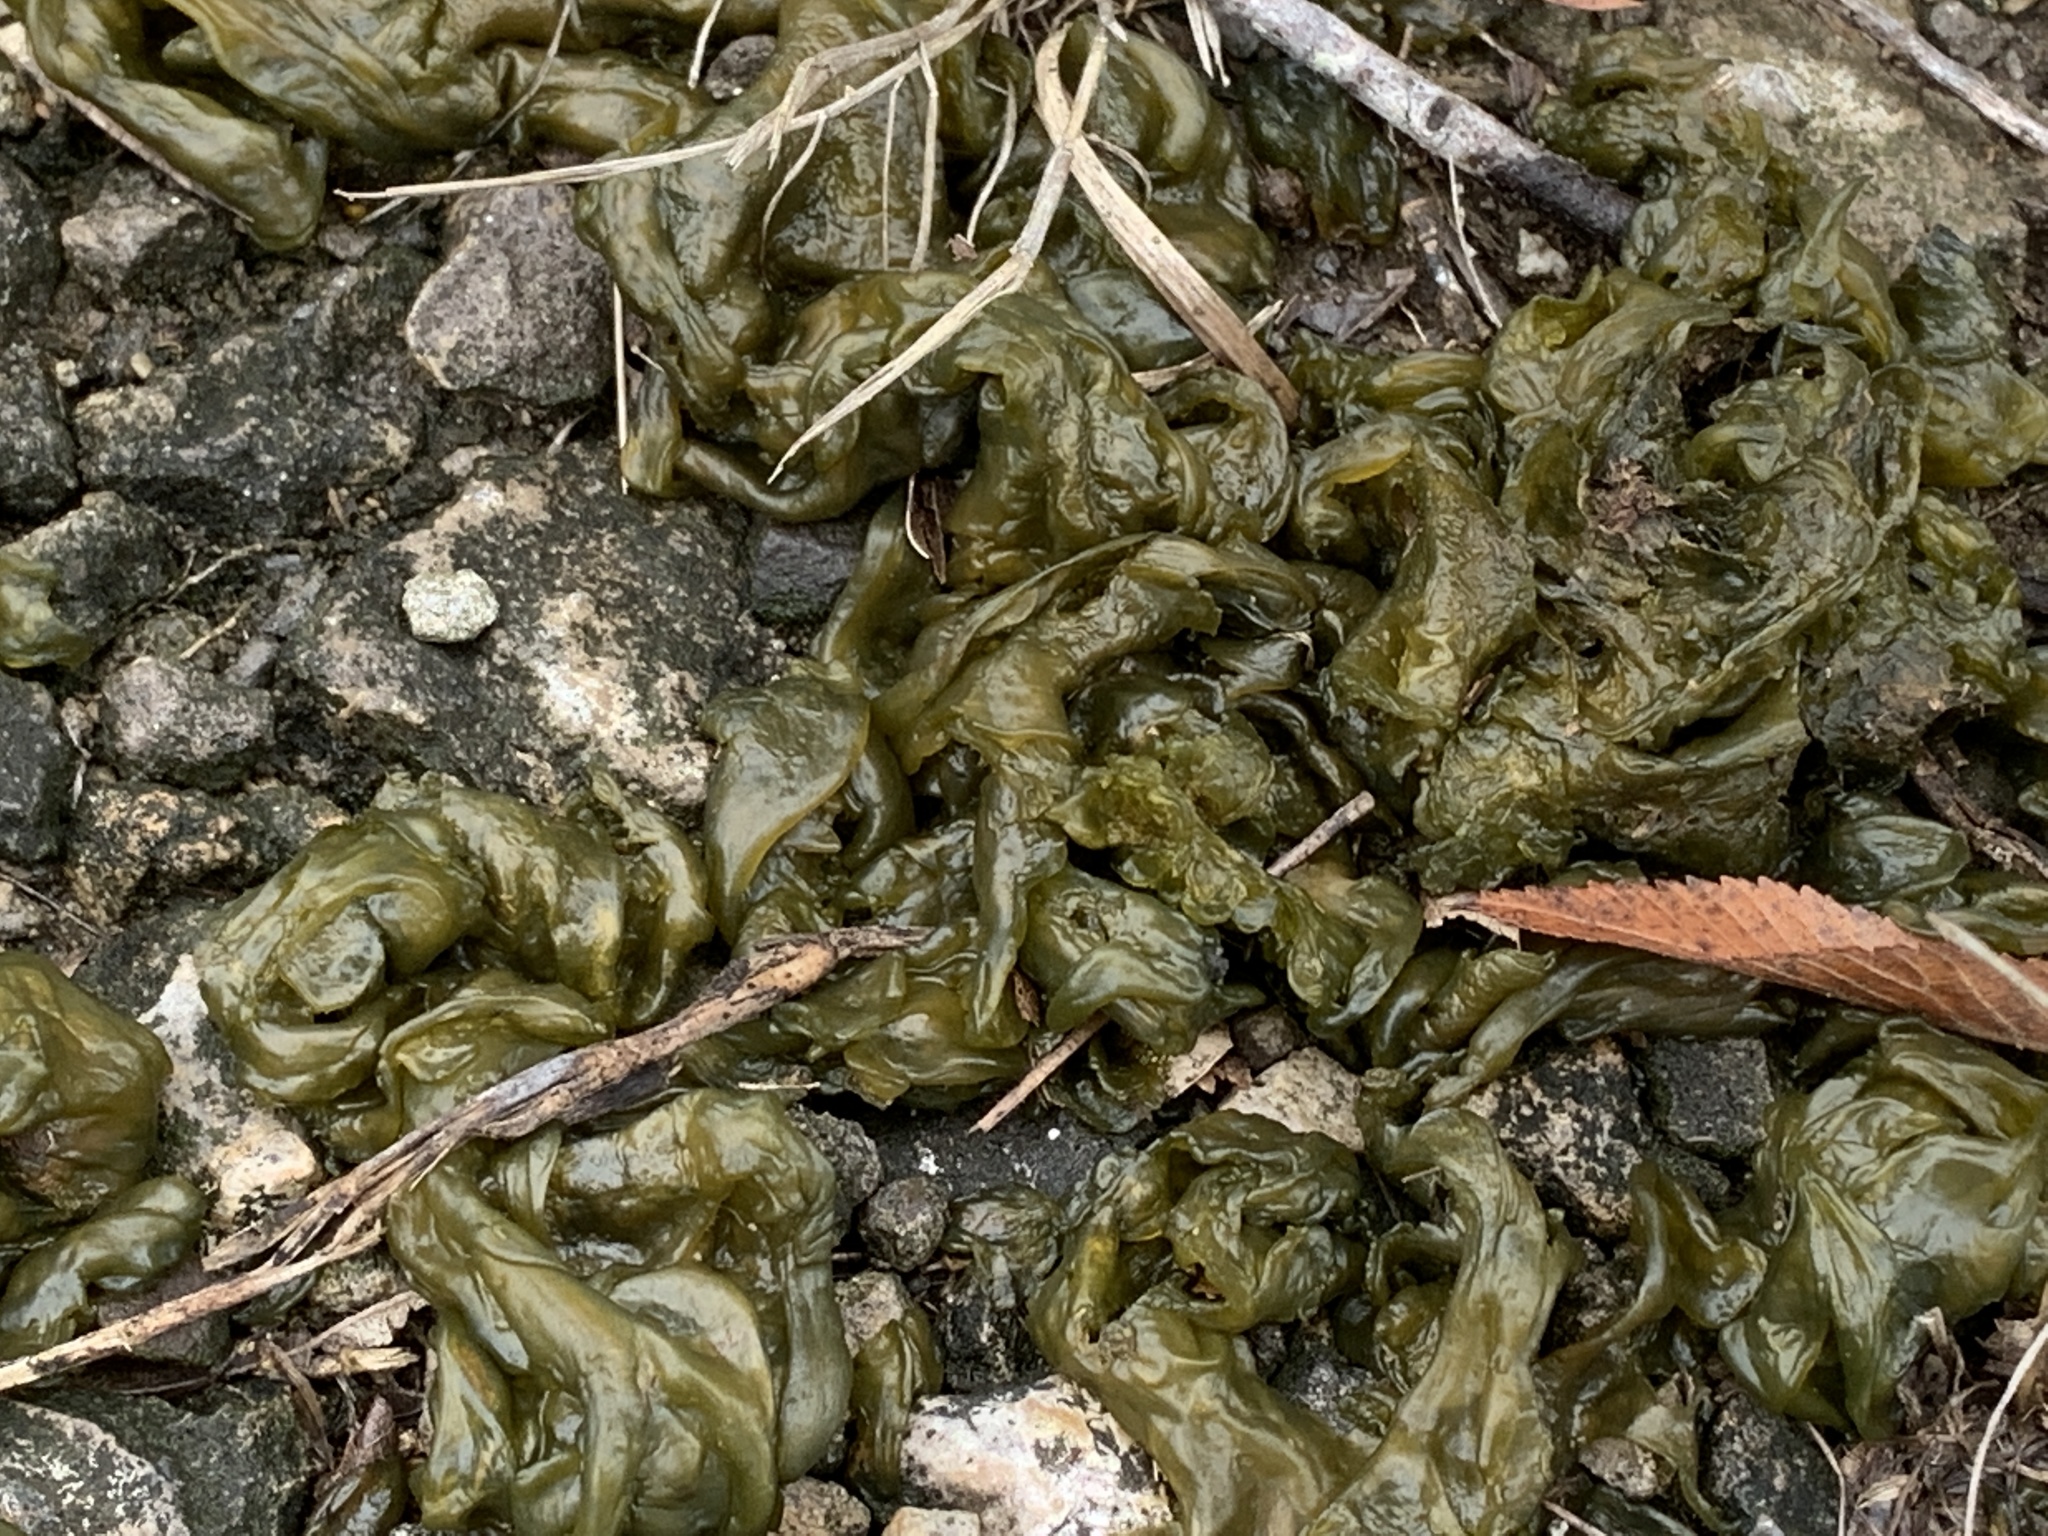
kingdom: Bacteria
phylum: Cyanobacteria
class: Cyanobacteriia
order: Cyanobacteriales
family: Nostocaceae
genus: Nostoc
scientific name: Nostoc commune
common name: Star jelly
